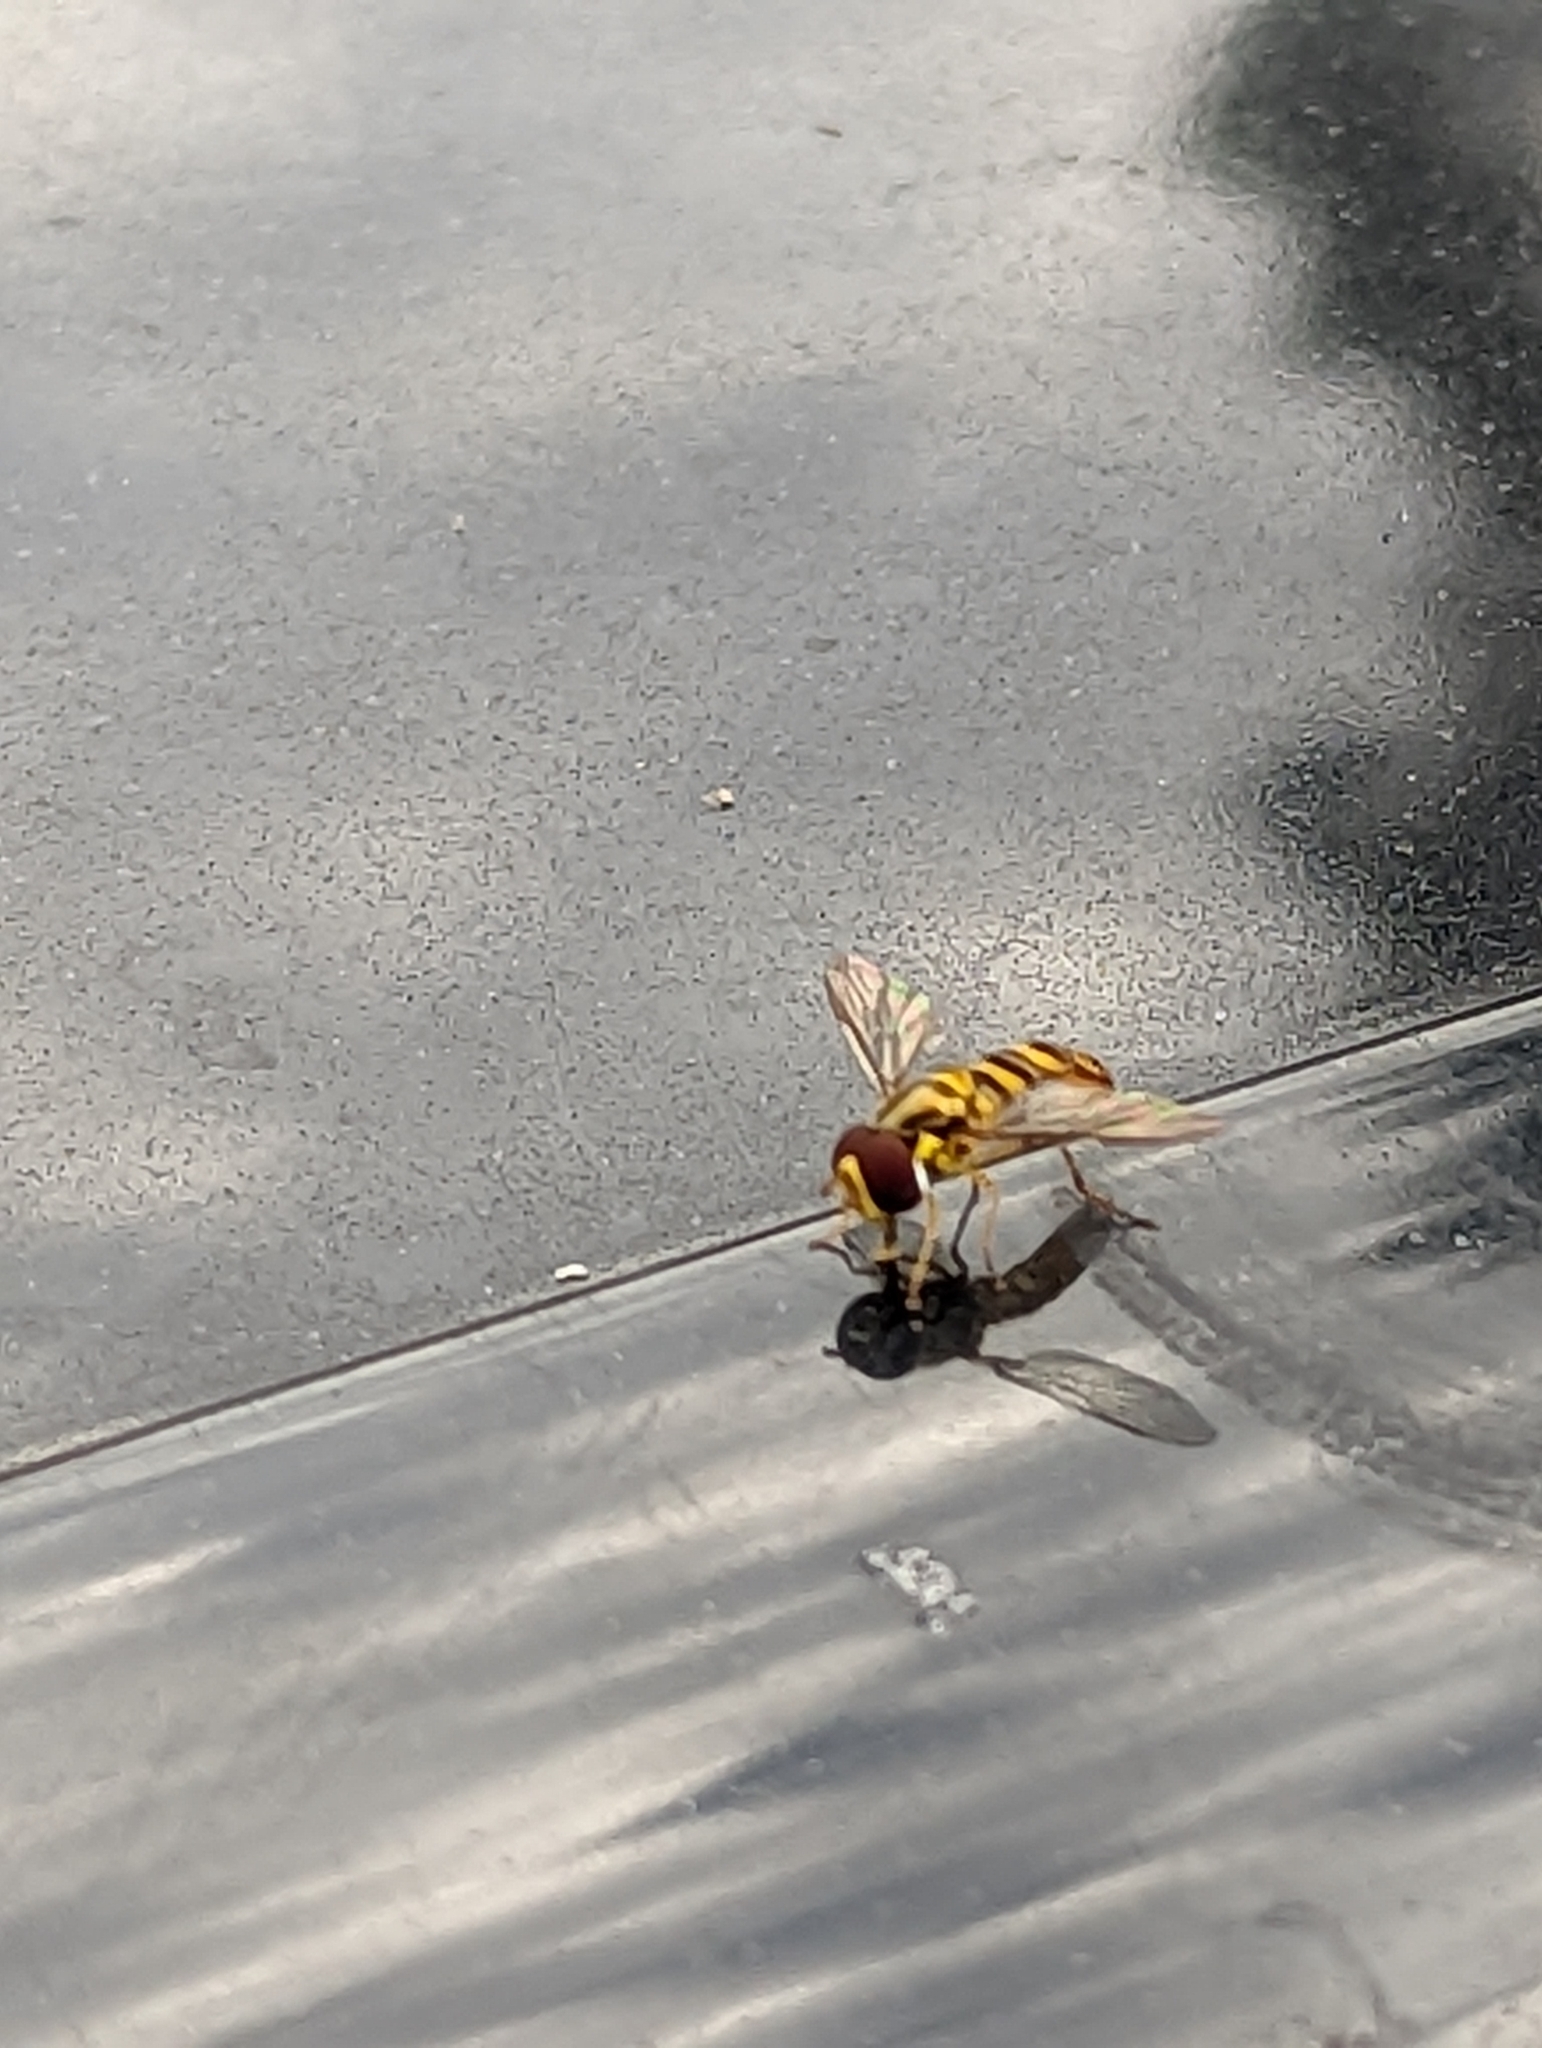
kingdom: Animalia
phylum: Arthropoda
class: Insecta
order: Diptera
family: Syrphidae
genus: Allograpta
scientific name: Allograpta obliqua
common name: Common oblique syrphid
